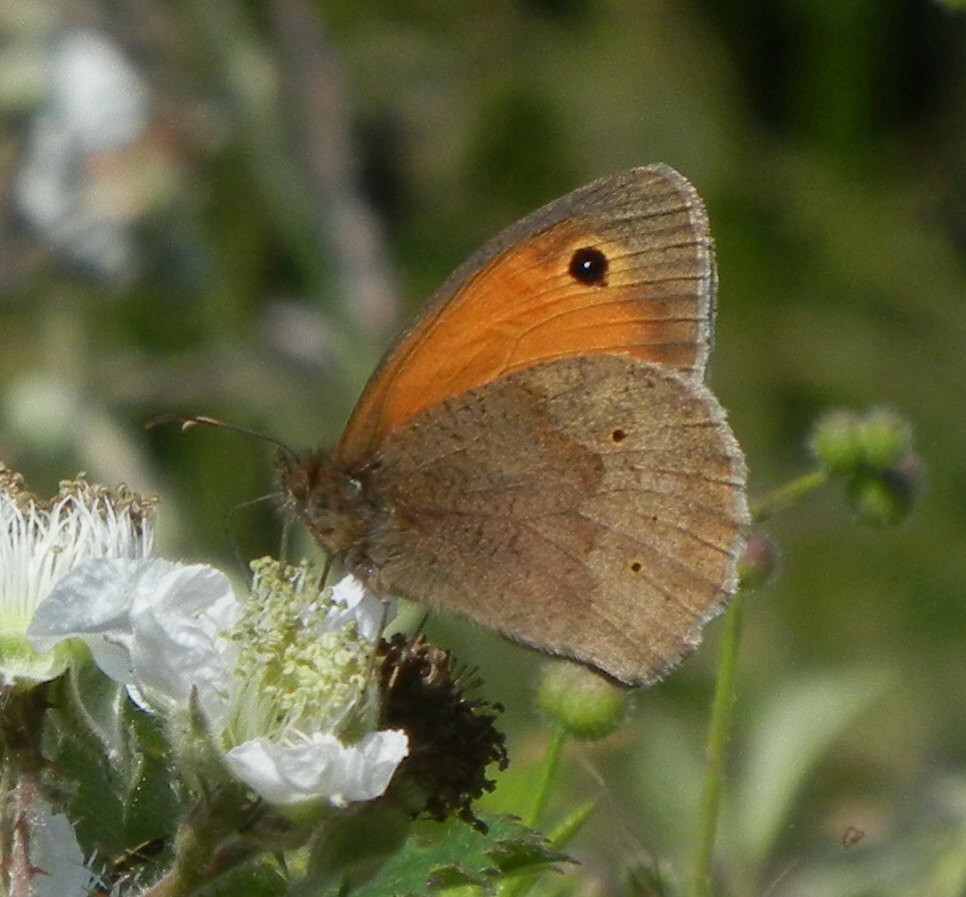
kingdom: Animalia
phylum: Arthropoda
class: Insecta
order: Lepidoptera
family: Nymphalidae
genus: Maniola
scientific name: Maniola jurtina
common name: Meadow brown
